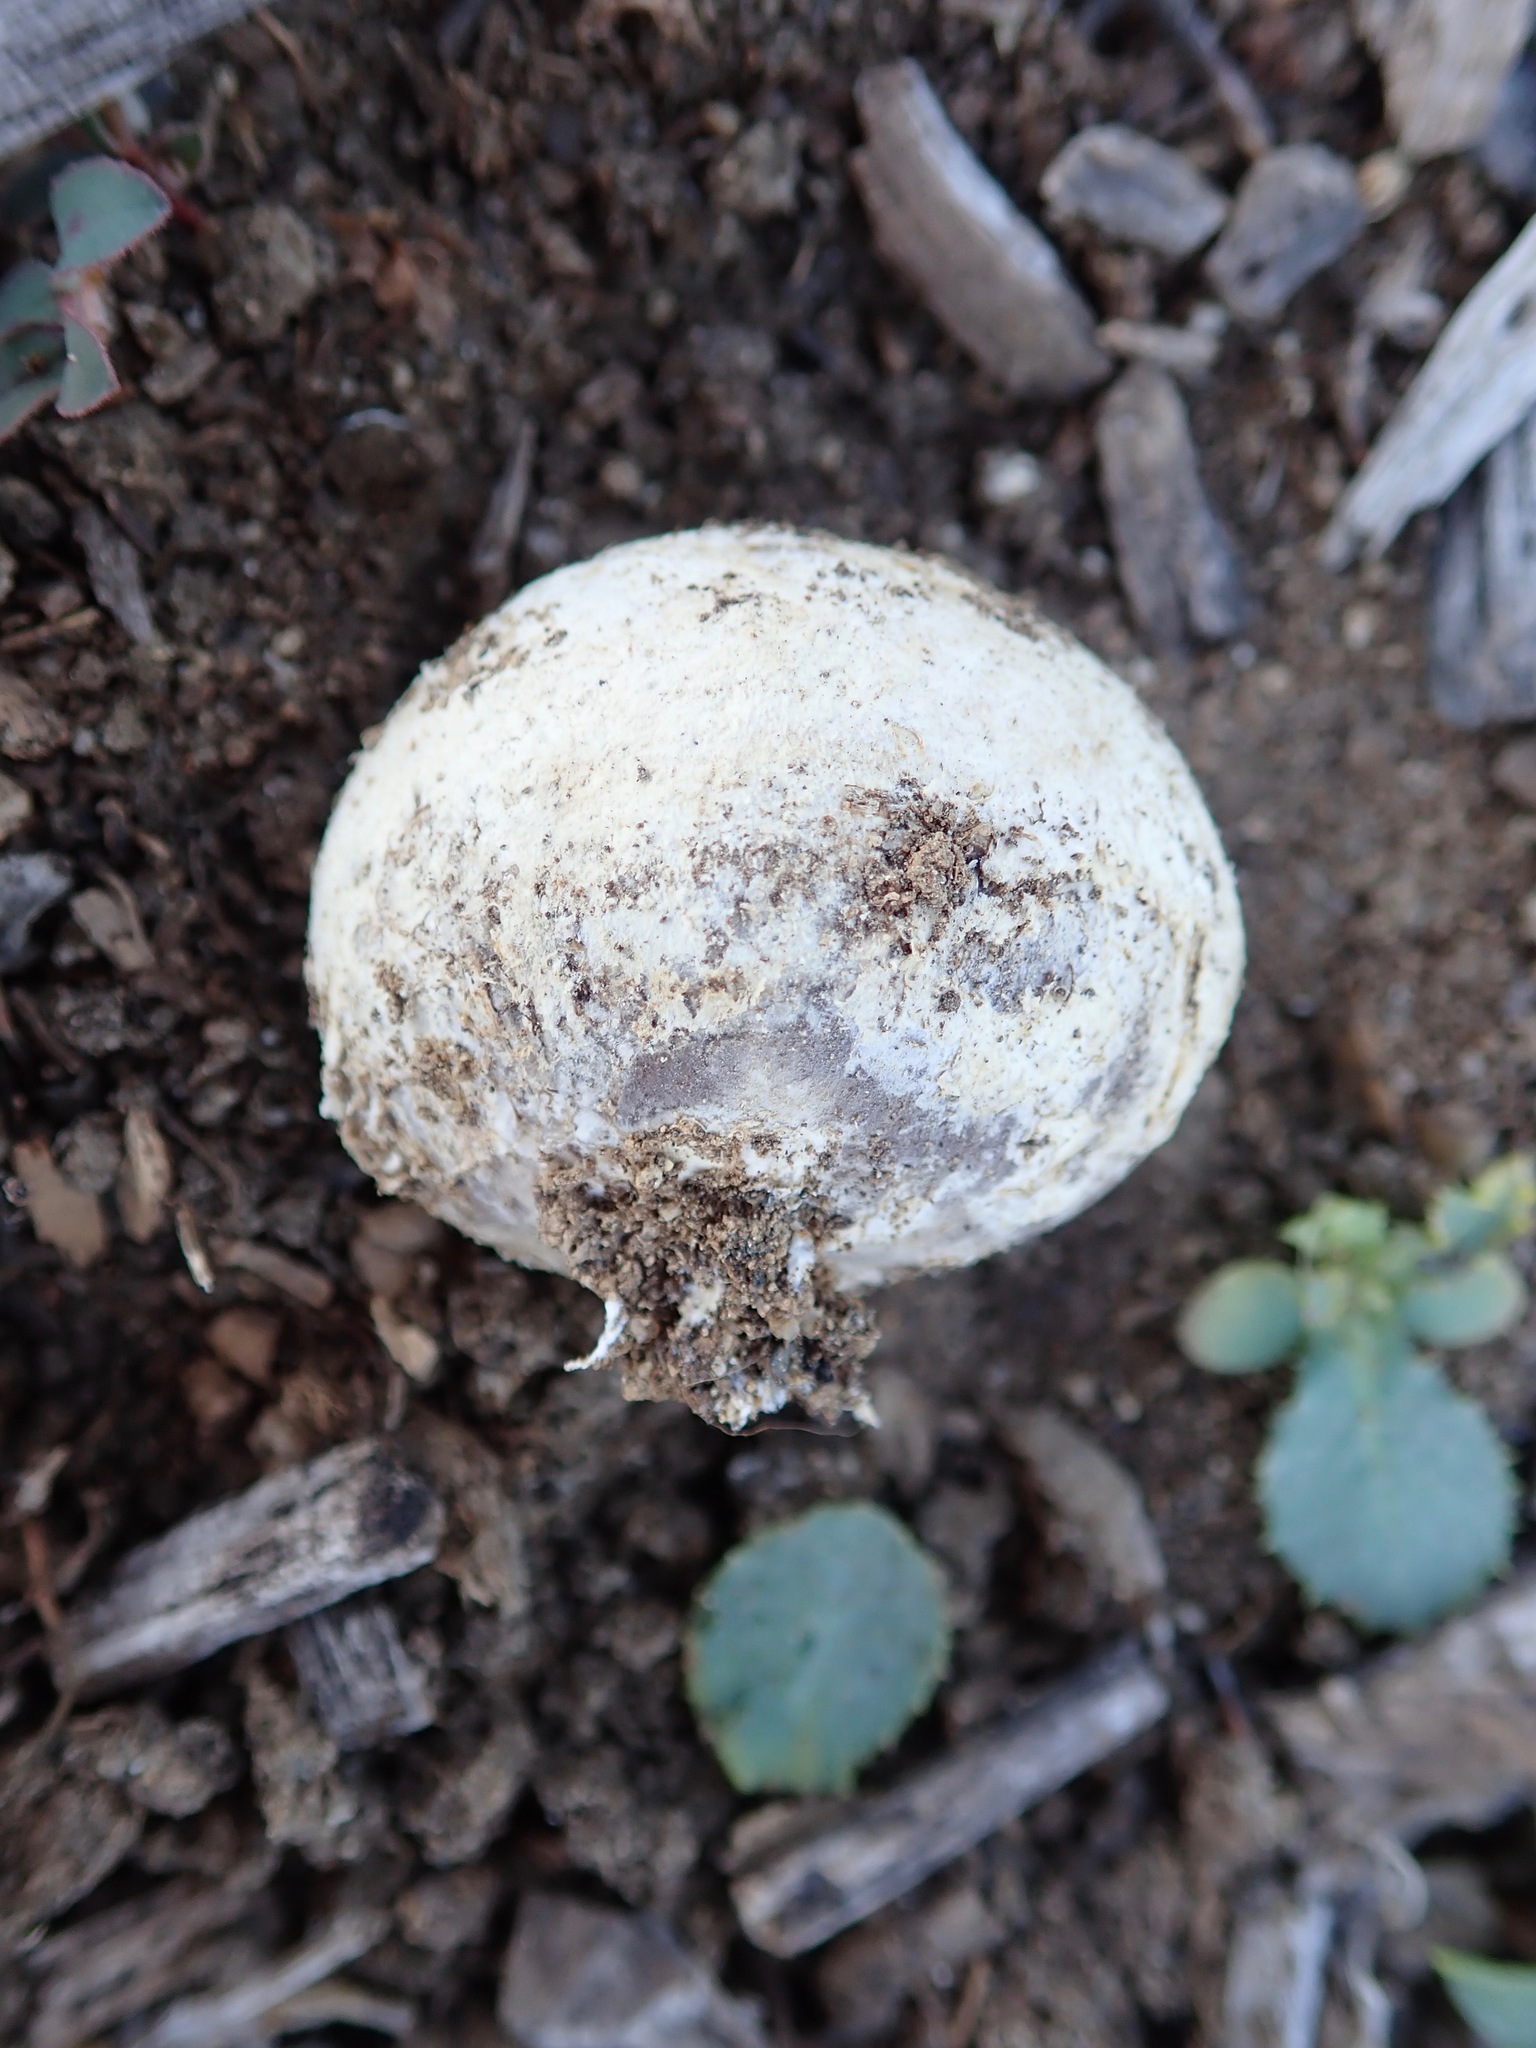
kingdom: Fungi
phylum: Basidiomycota
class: Agaricomycetes
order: Agaricales
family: Agaricaceae
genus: Mycenastrum
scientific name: Mycenastrum corium
